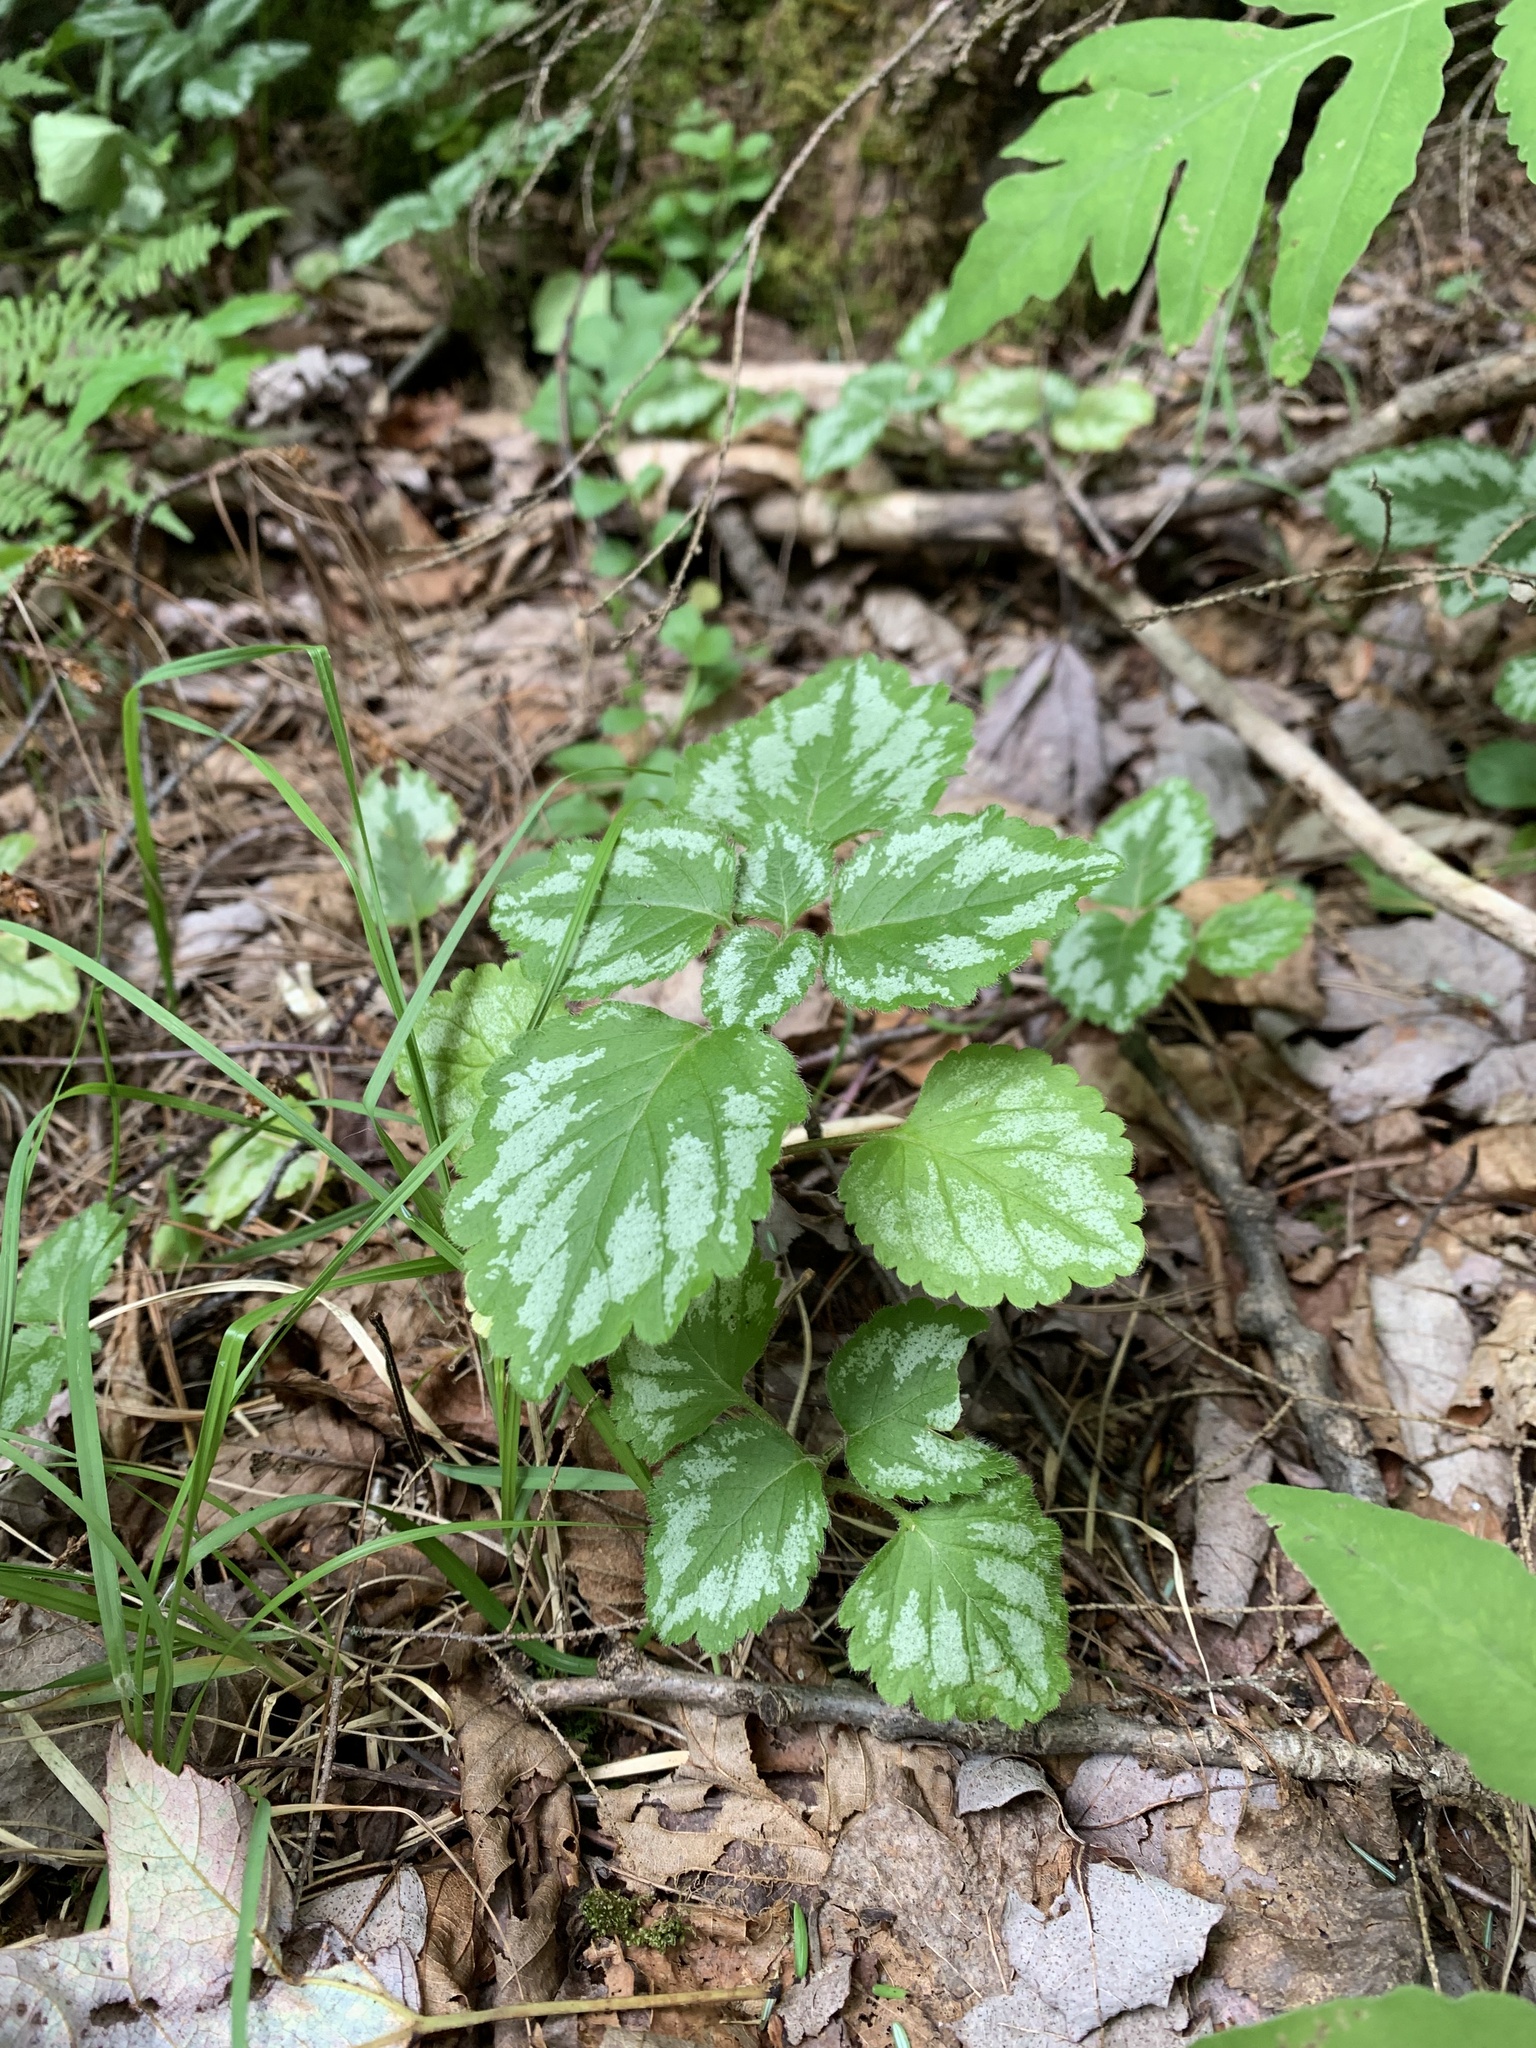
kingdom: Plantae
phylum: Tracheophyta
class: Magnoliopsida
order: Lamiales
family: Lamiaceae
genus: Lamium
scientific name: Lamium galeobdolon
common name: Yellow archangel
